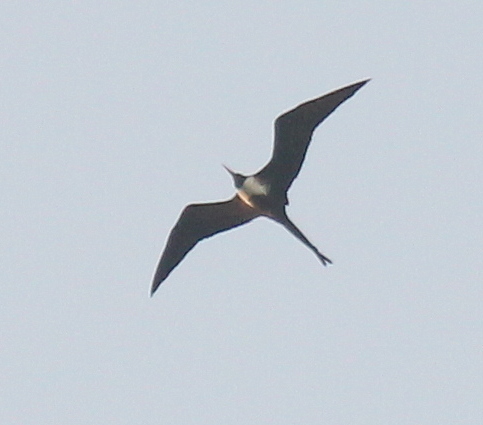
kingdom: Animalia
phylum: Chordata
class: Aves
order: Suliformes
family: Fregatidae
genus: Fregata
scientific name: Fregata magnificens
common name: Magnificent frigatebird
